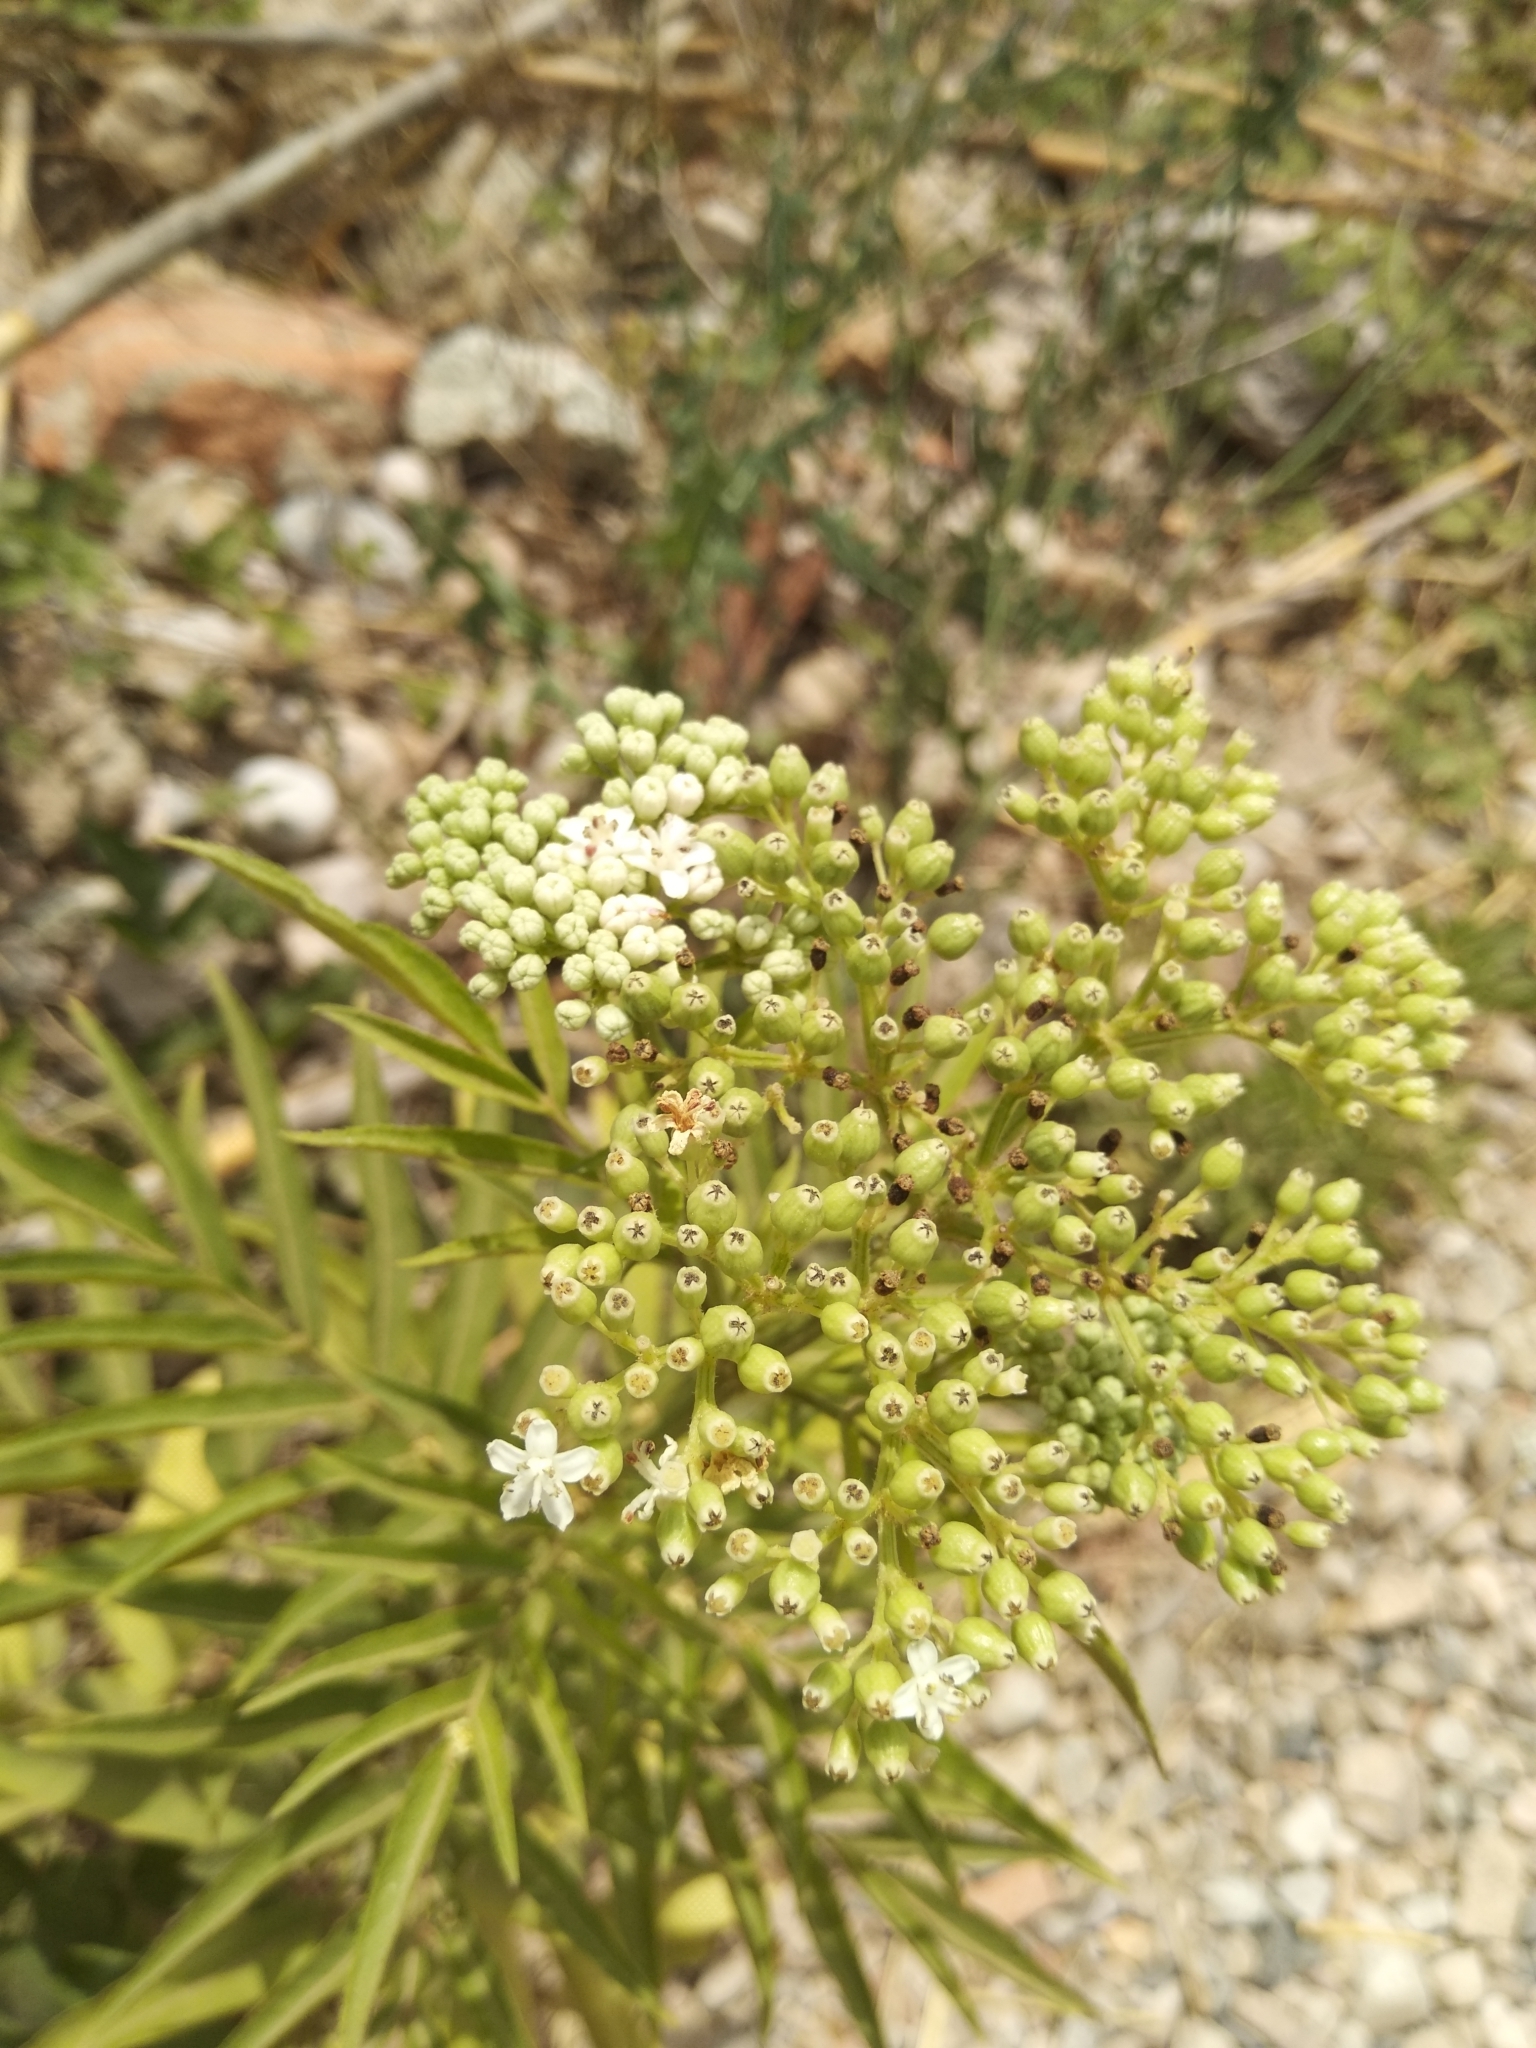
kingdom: Plantae
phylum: Tracheophyta
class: Magnoliopsida
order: Dipsacales
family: Viburnaceae
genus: Sambucus
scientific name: Sambucus ebulus
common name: Dwarf elder
